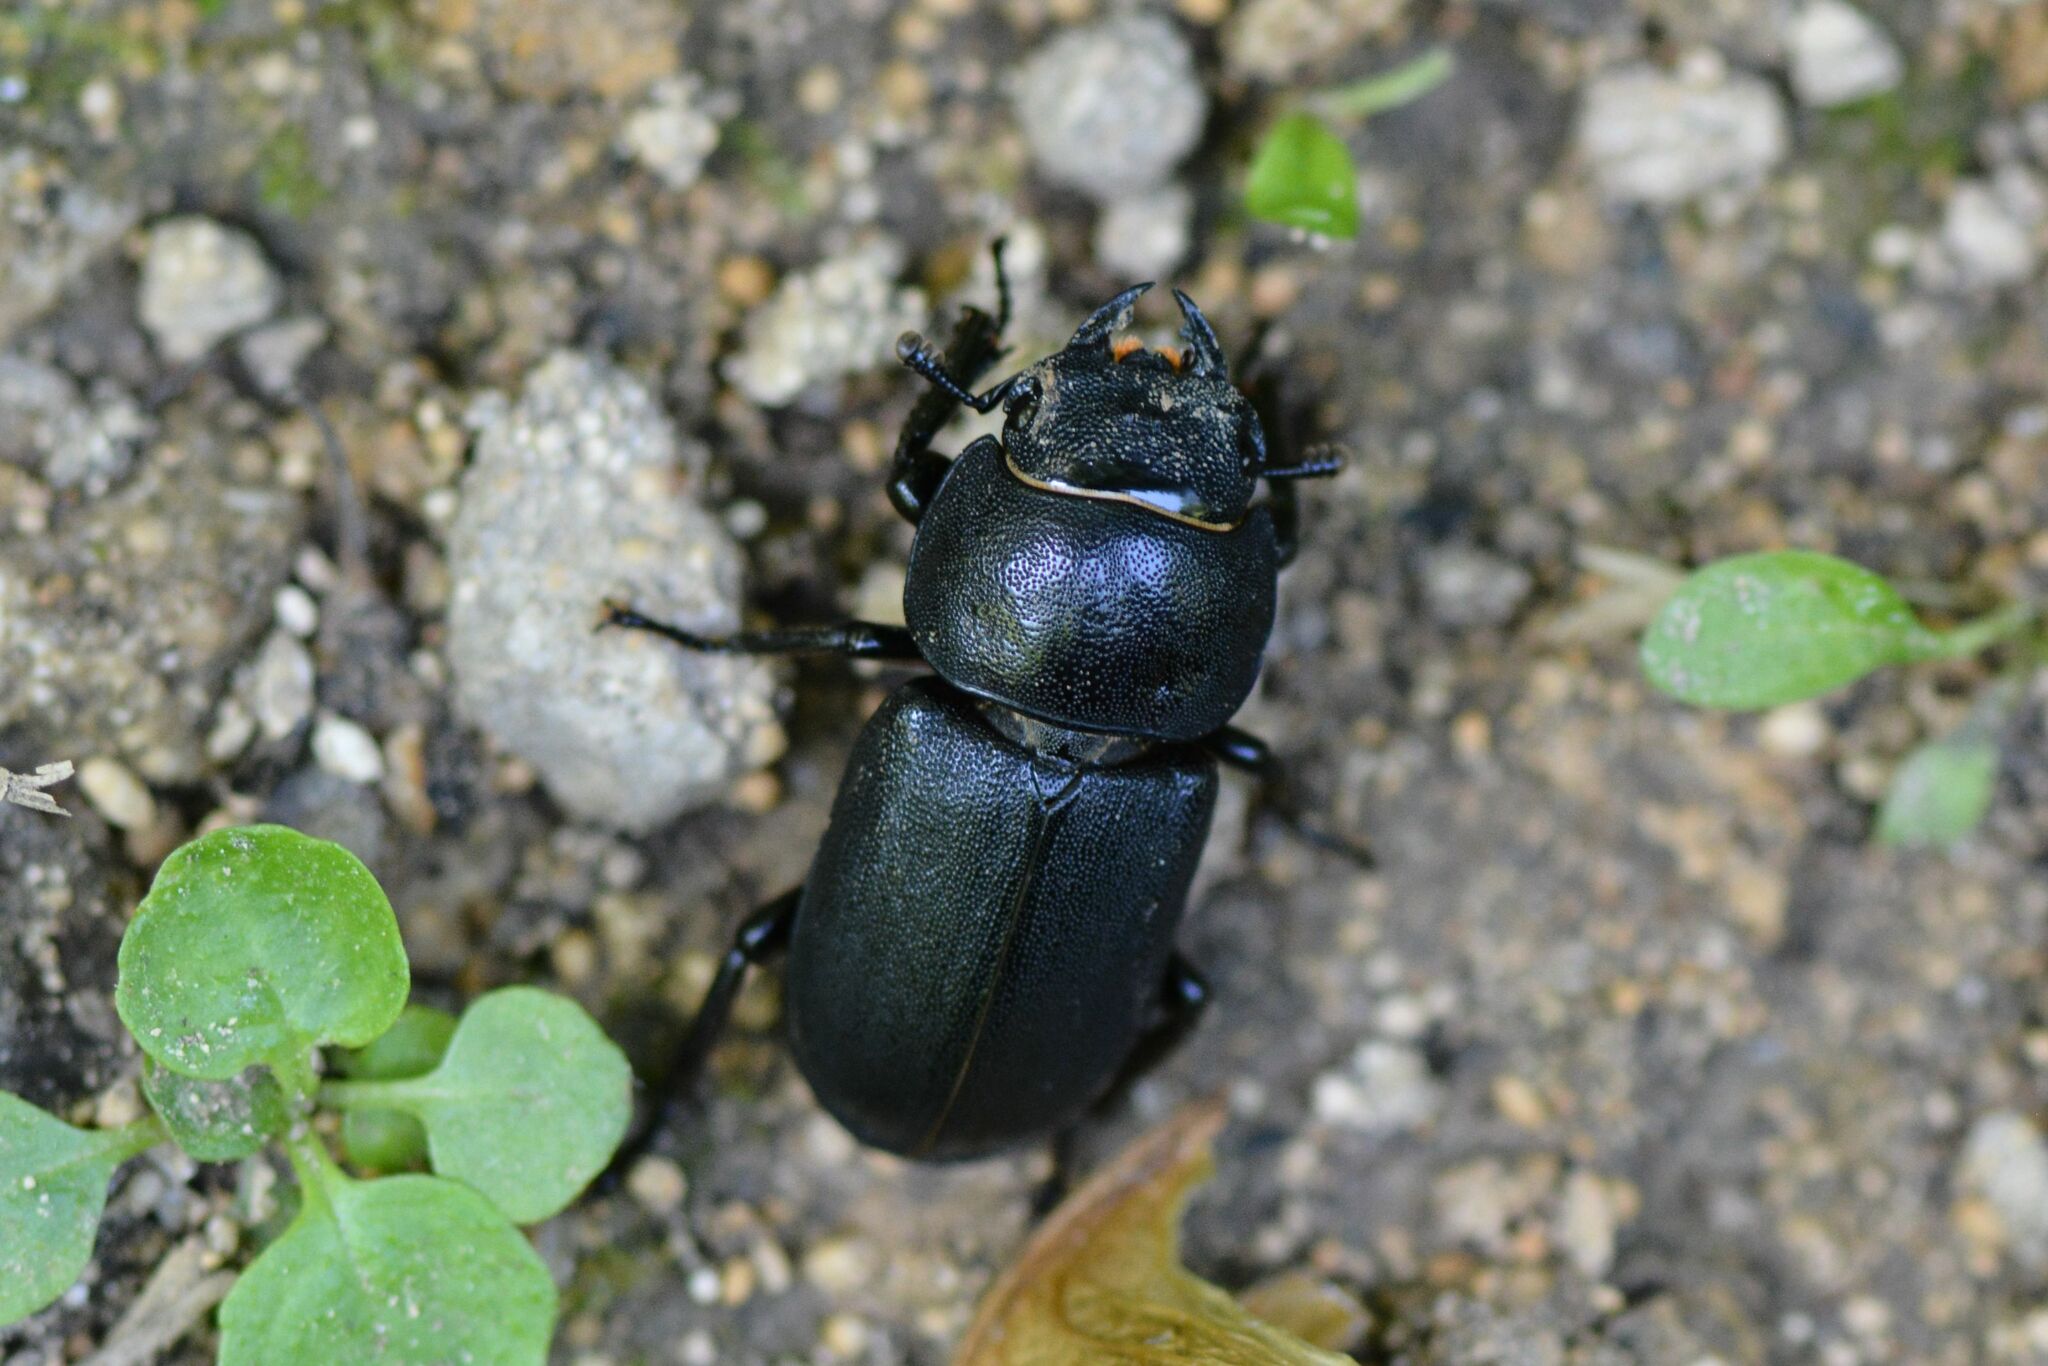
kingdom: Animalia
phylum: Arthropoda
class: Insecta
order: Coleoptera
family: Lucanidae
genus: Dorcus
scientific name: Dorcus parallelipipedus
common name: Lesser stag beetle
